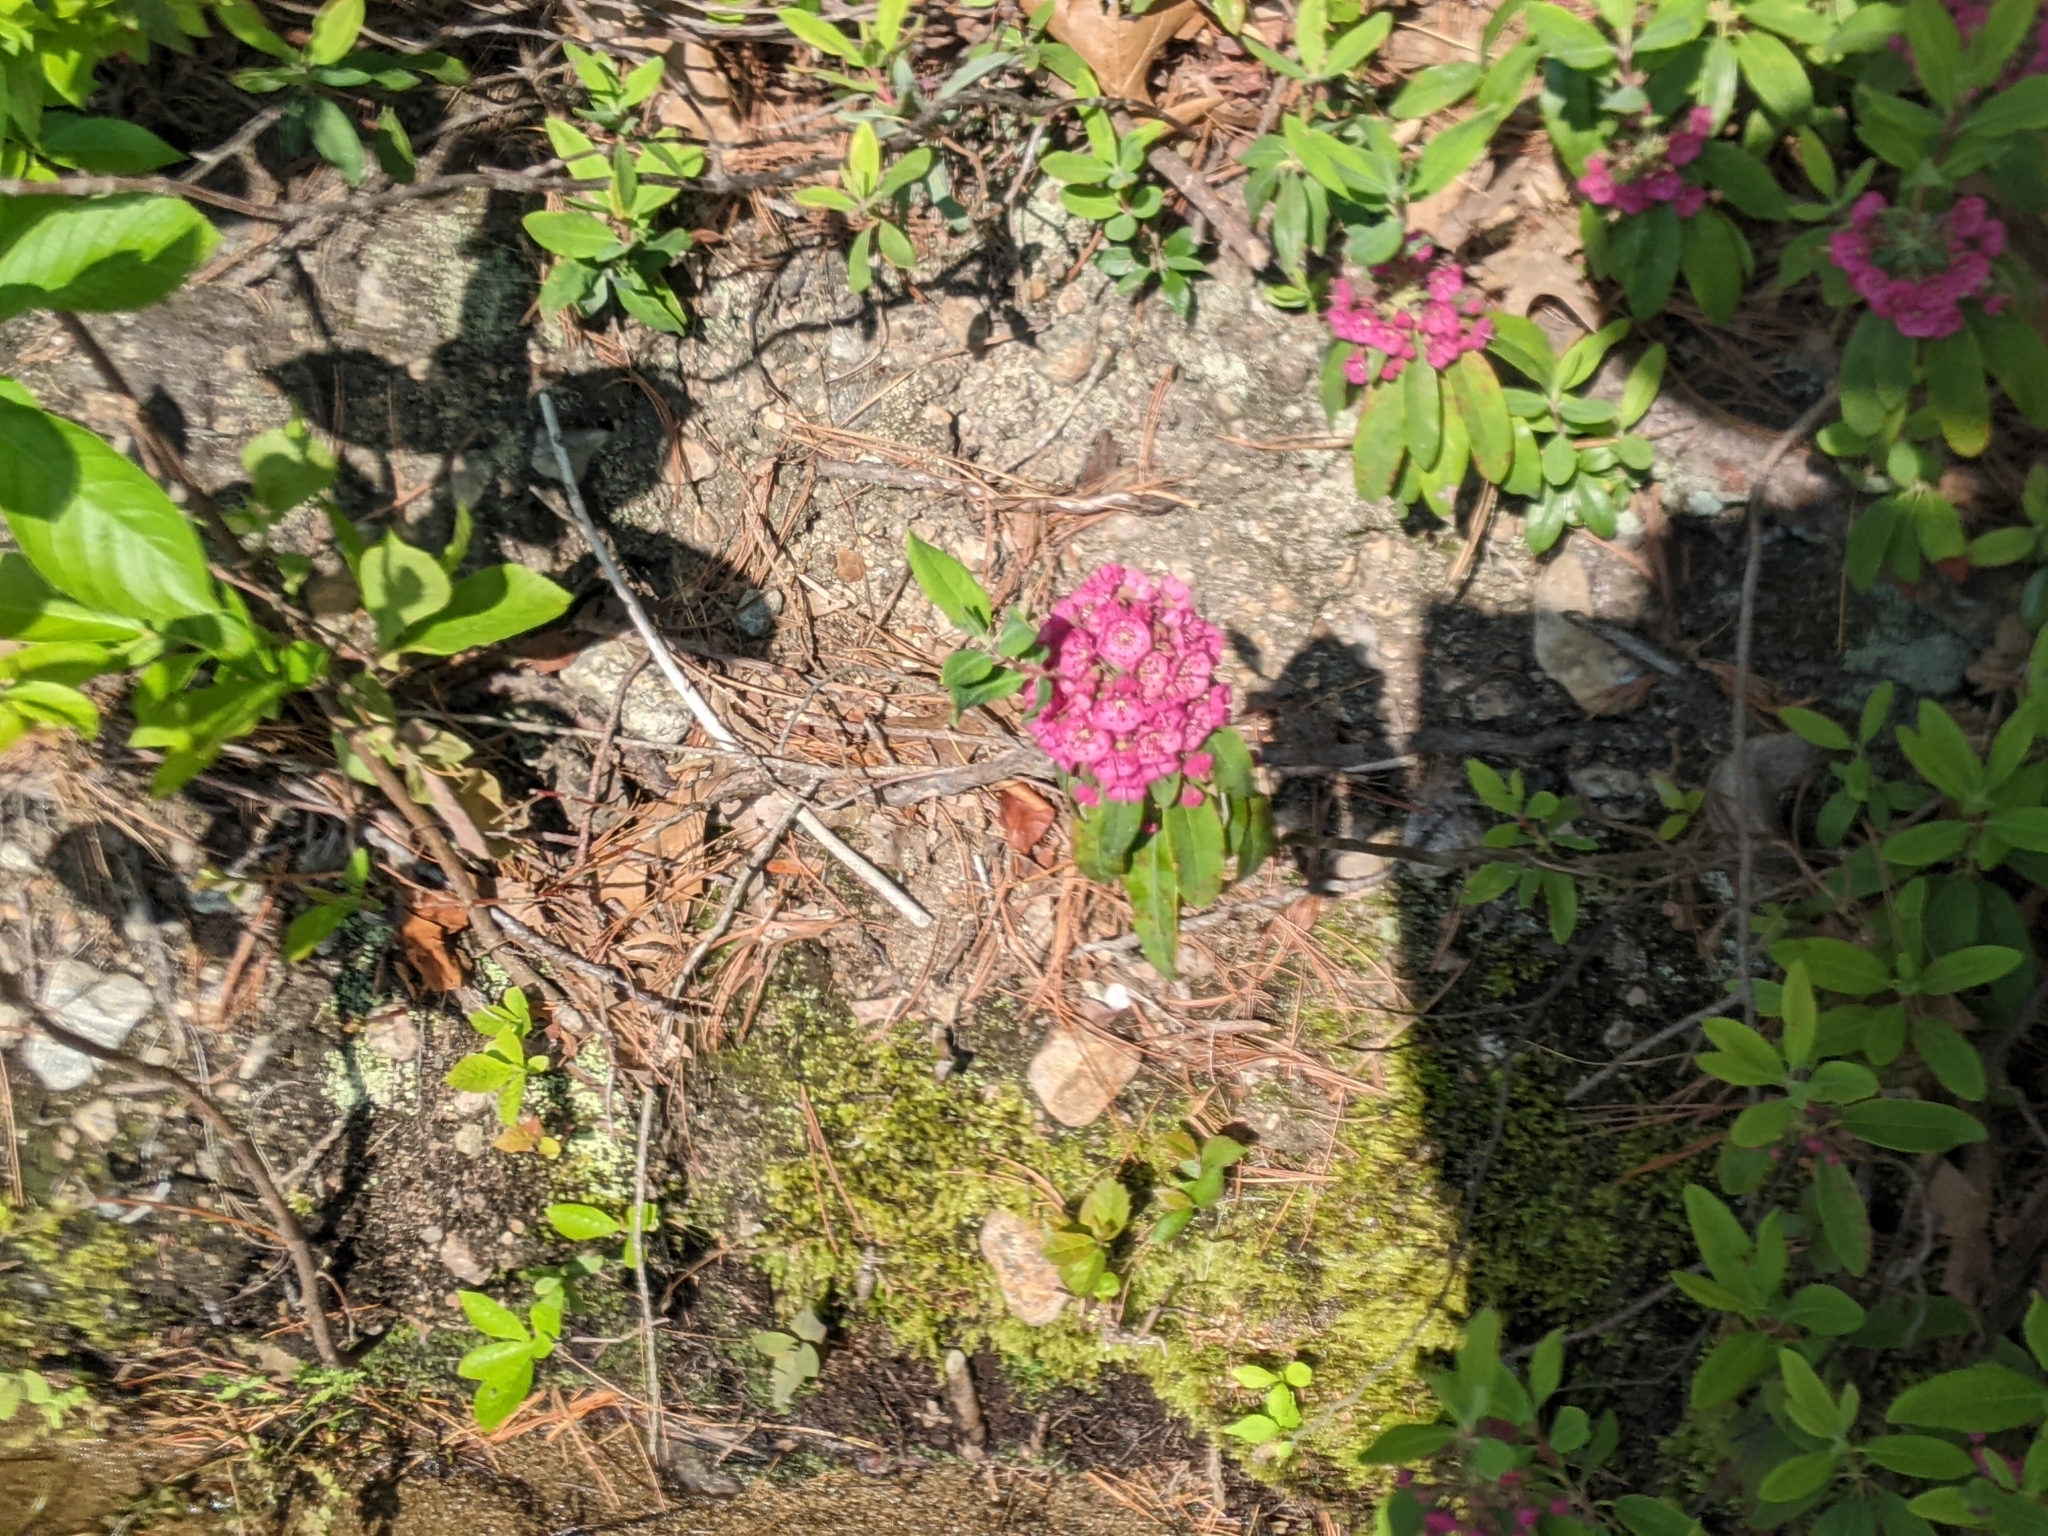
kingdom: Plantae
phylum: Tracheophyta
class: Magnoliopsida
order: Ericales
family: Ericaceae
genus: Kalmia
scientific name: Kalmia angustifolia
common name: Sheep-laurel
